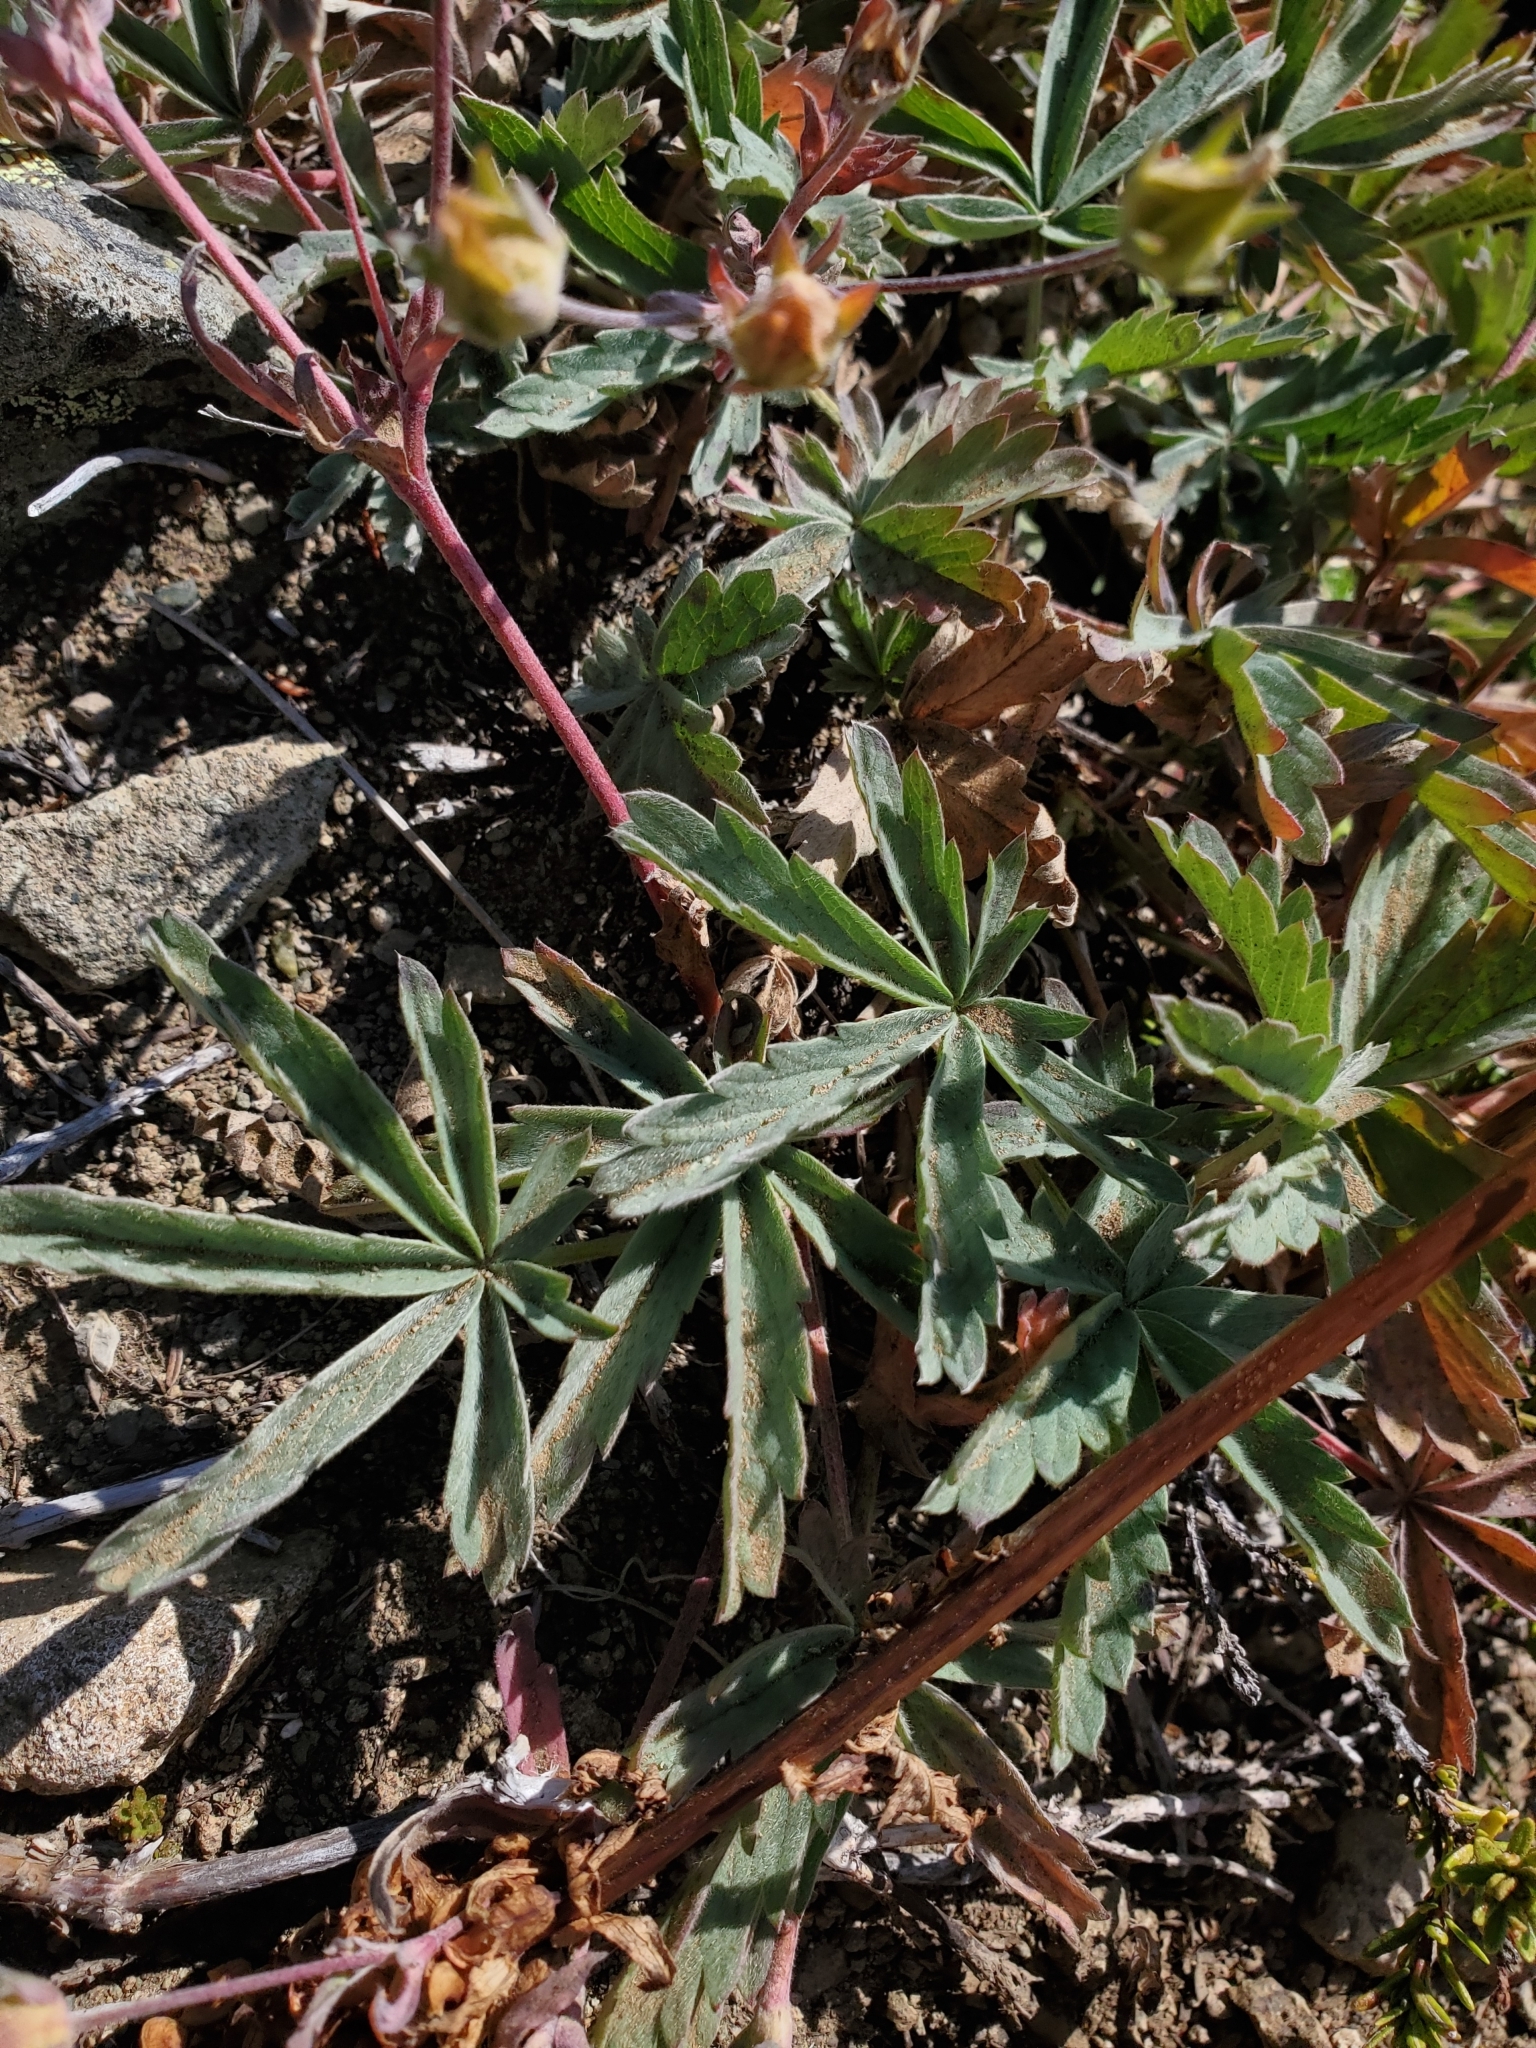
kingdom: Plantae
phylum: Tracheophyta
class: Magnoliopsida
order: Rosales
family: Rosaceae
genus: Potentilla
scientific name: Potentilla glaucophylla
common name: Blue-leaved cinquefoil
